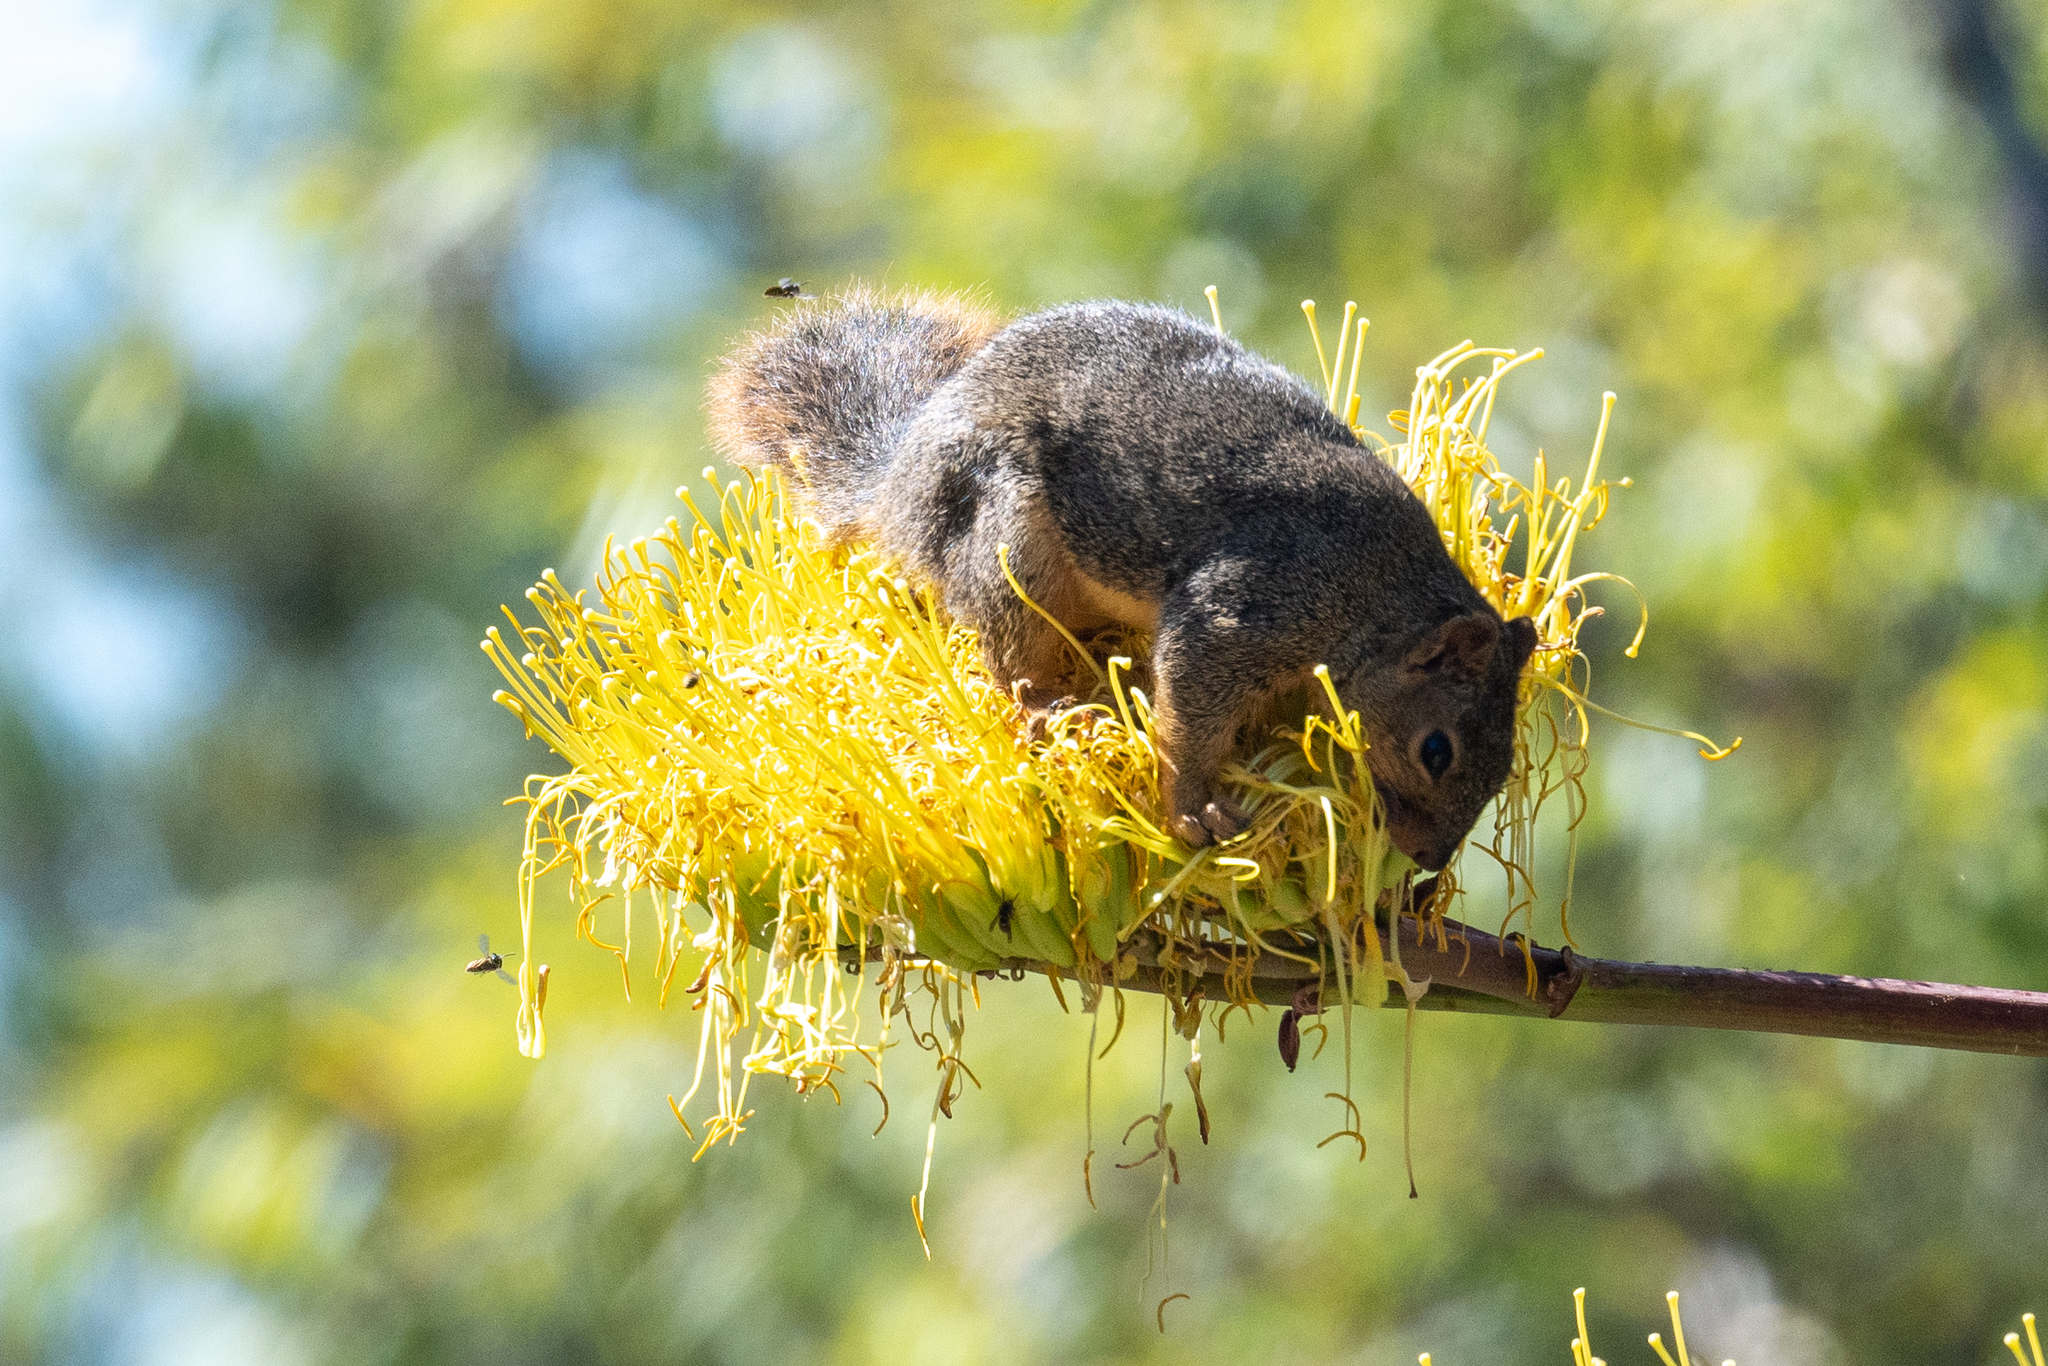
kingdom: Animalia
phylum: Chordata
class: Mammalia
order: Rodentia
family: Sciuridae
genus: Sciurus
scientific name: Sciurus niger
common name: Fox squirrel
